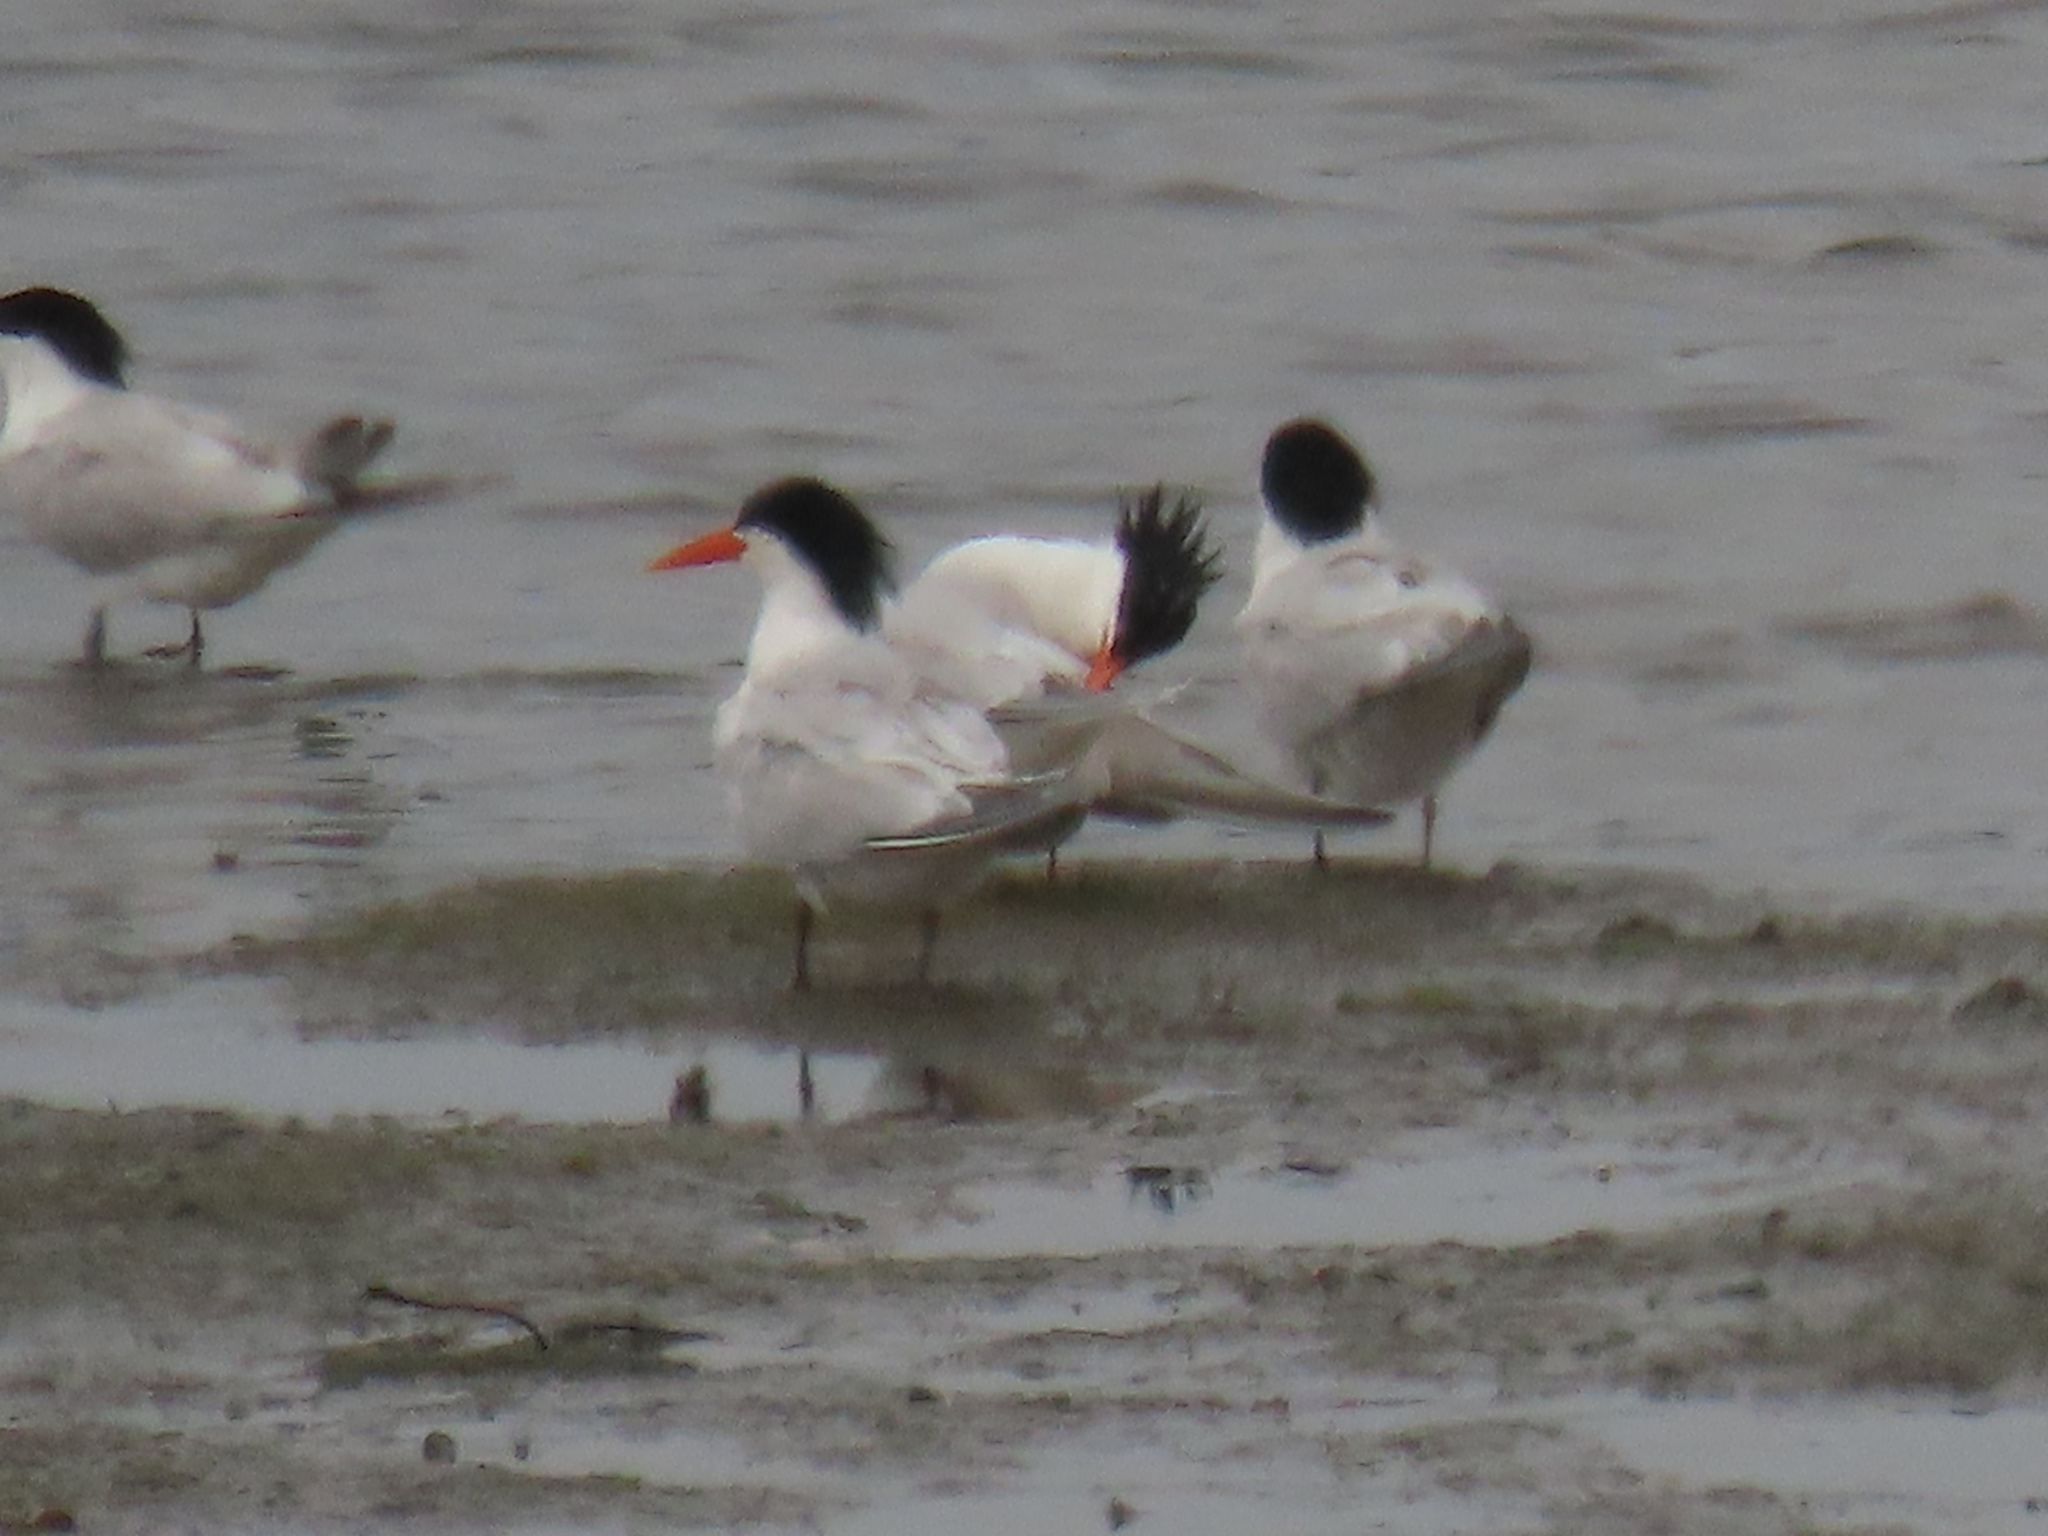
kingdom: Animalia
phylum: Chordata
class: Aves
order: Charadriiformes
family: Laridae
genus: Thalasseus
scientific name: Thalasseus elegans
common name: Elegant tern
